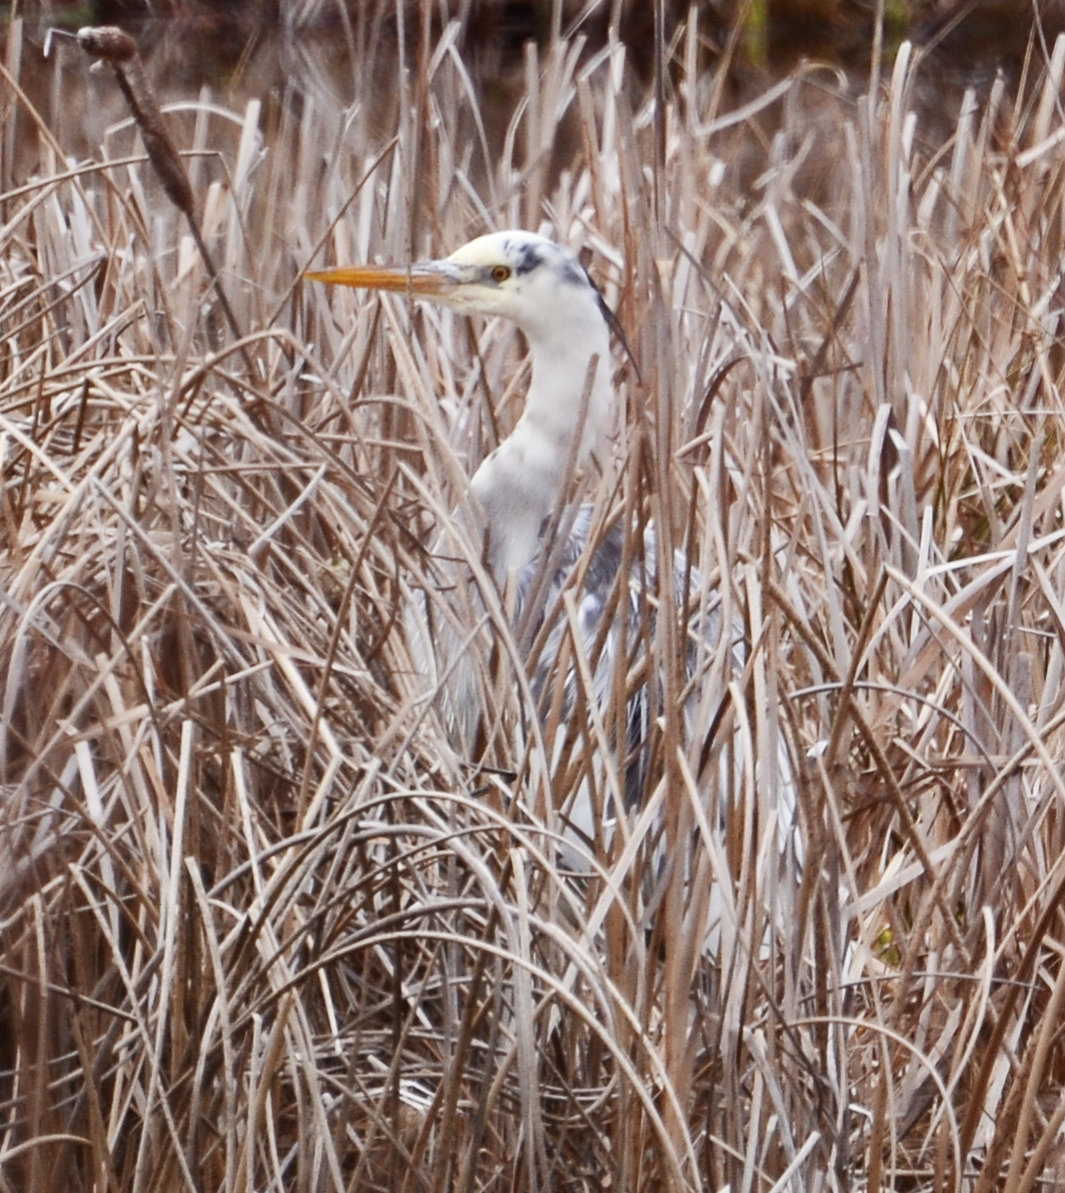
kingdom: Animalia
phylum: Chordata
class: Aves
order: Pelecaniformes
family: Ardeidae
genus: Ardea
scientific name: Ardea herodias
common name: Great blue heron
